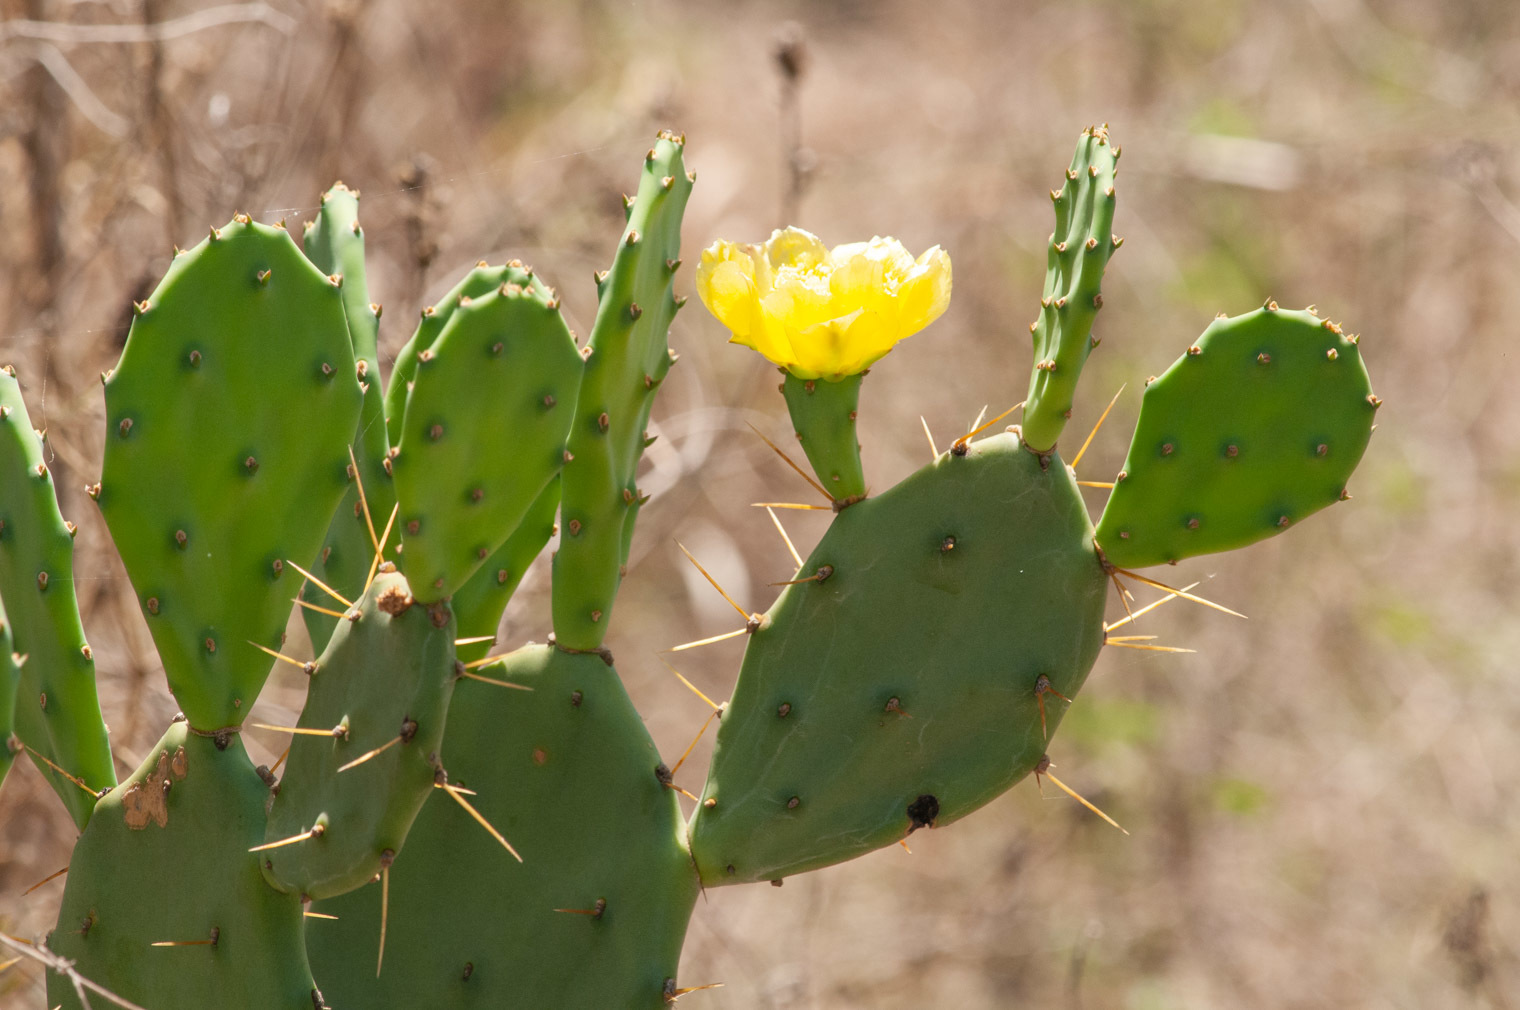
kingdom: Plantae
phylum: Tracheophyta
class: Magnoliopsida
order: Caryophyllales
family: Cactaceae
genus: Opuntia
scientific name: Opuntia stricta
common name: Erect pricklypear
